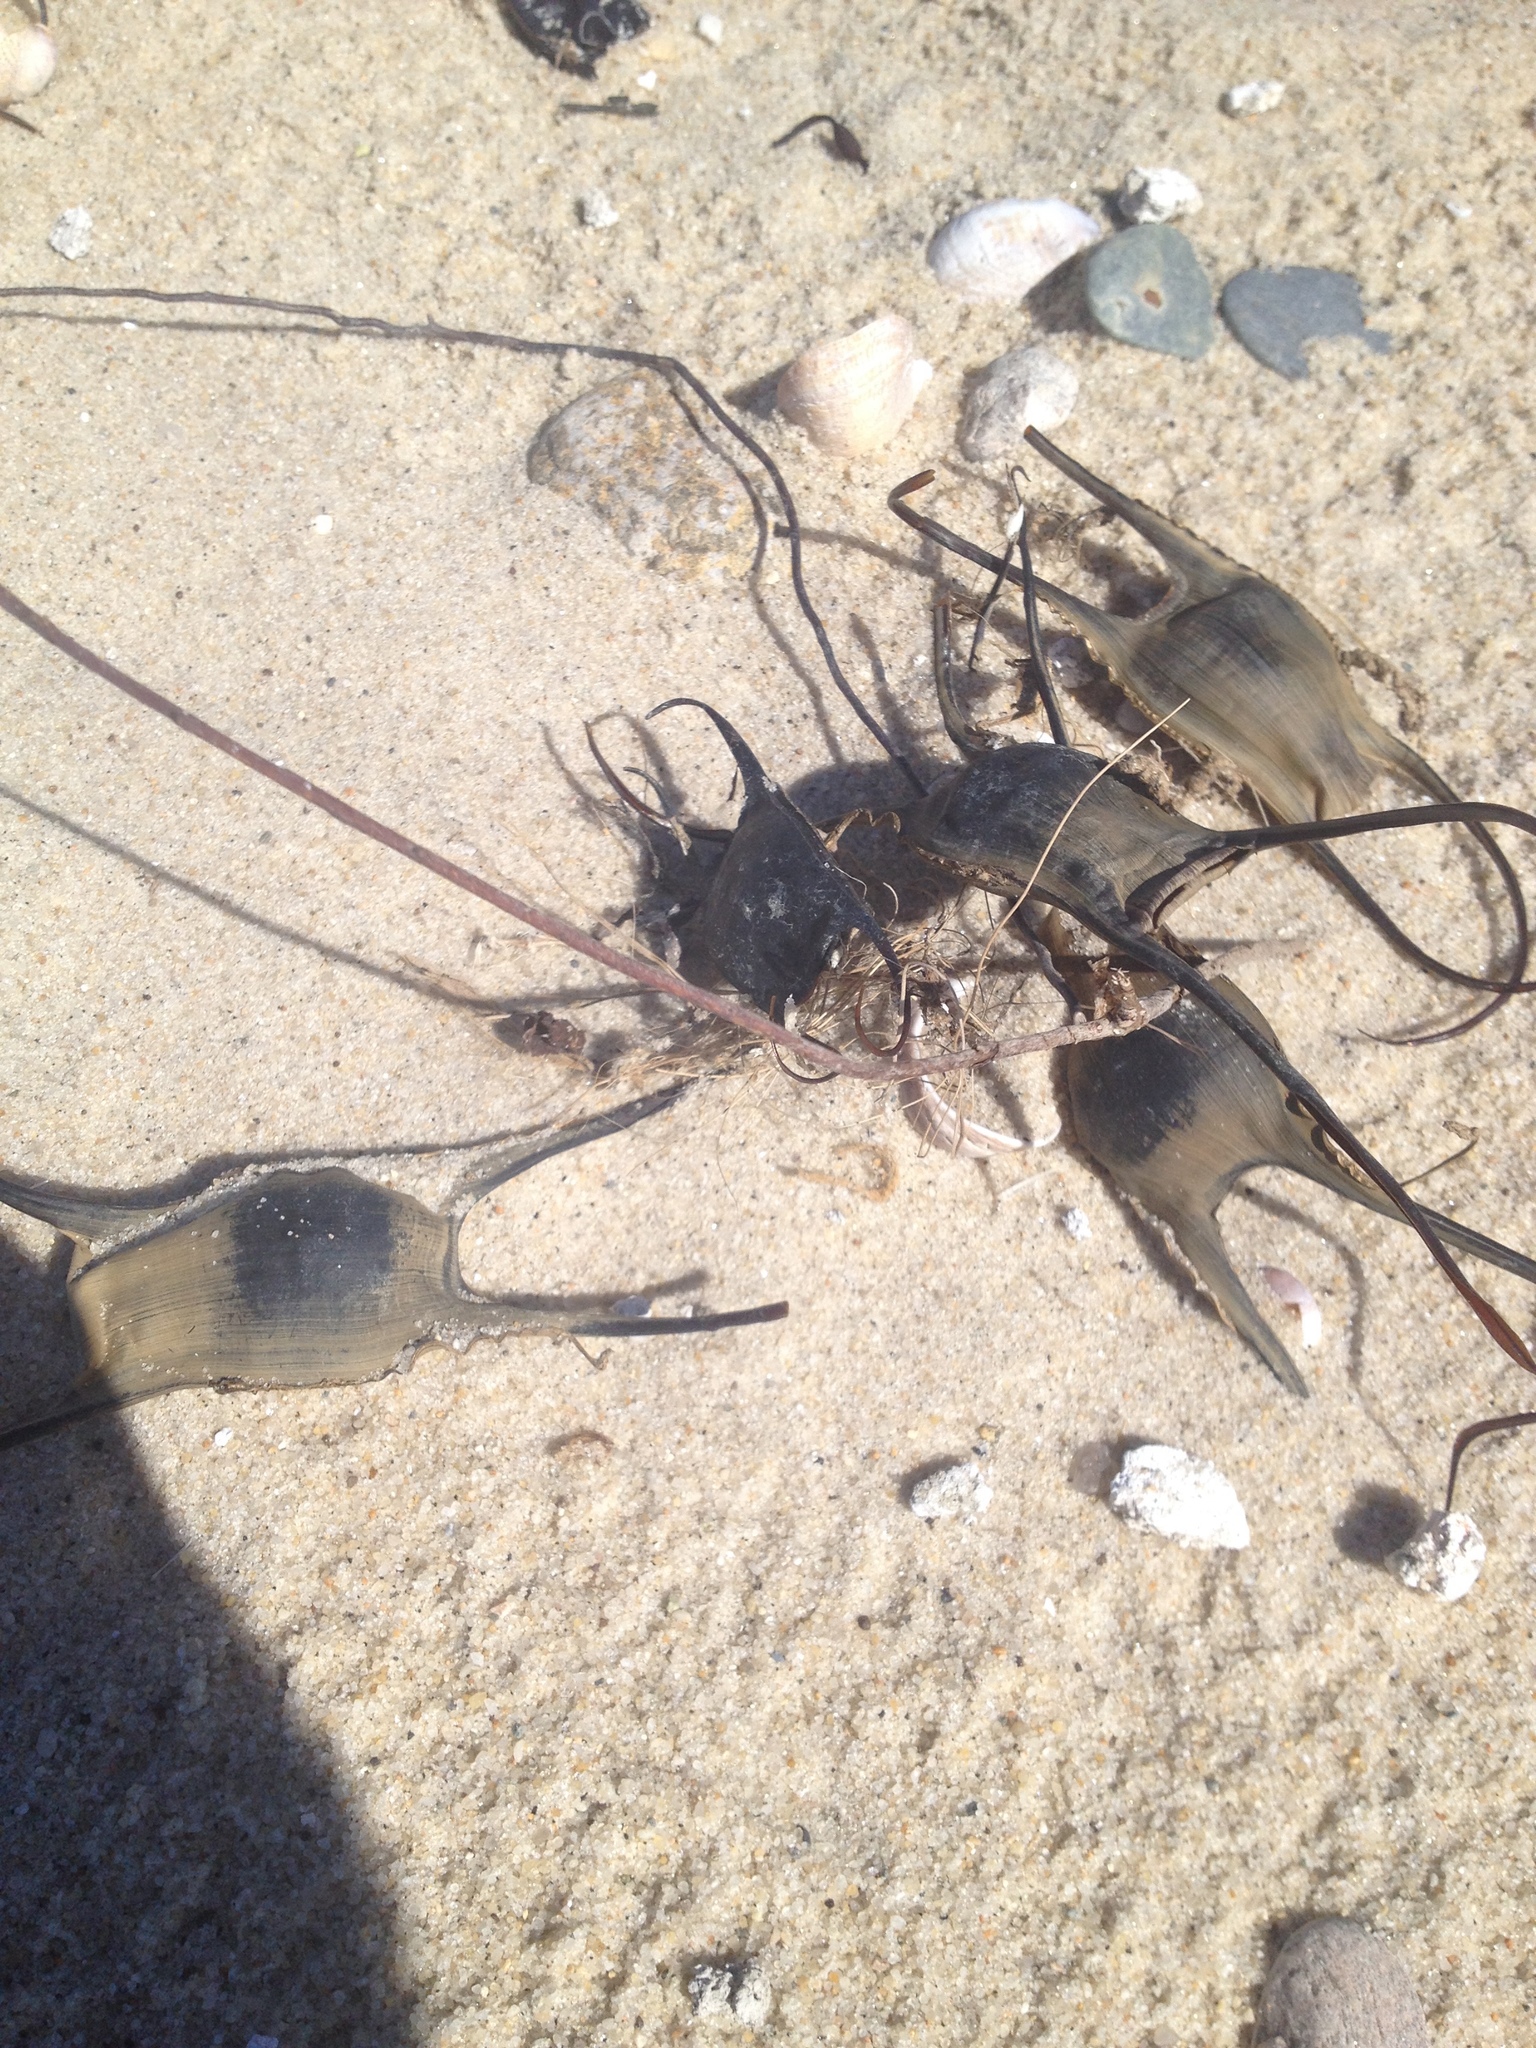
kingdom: Animalia
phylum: Chordata
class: Elasmobranchii
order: Rajiformes
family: Rajidae
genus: Leucoraja
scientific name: Leucoraja
